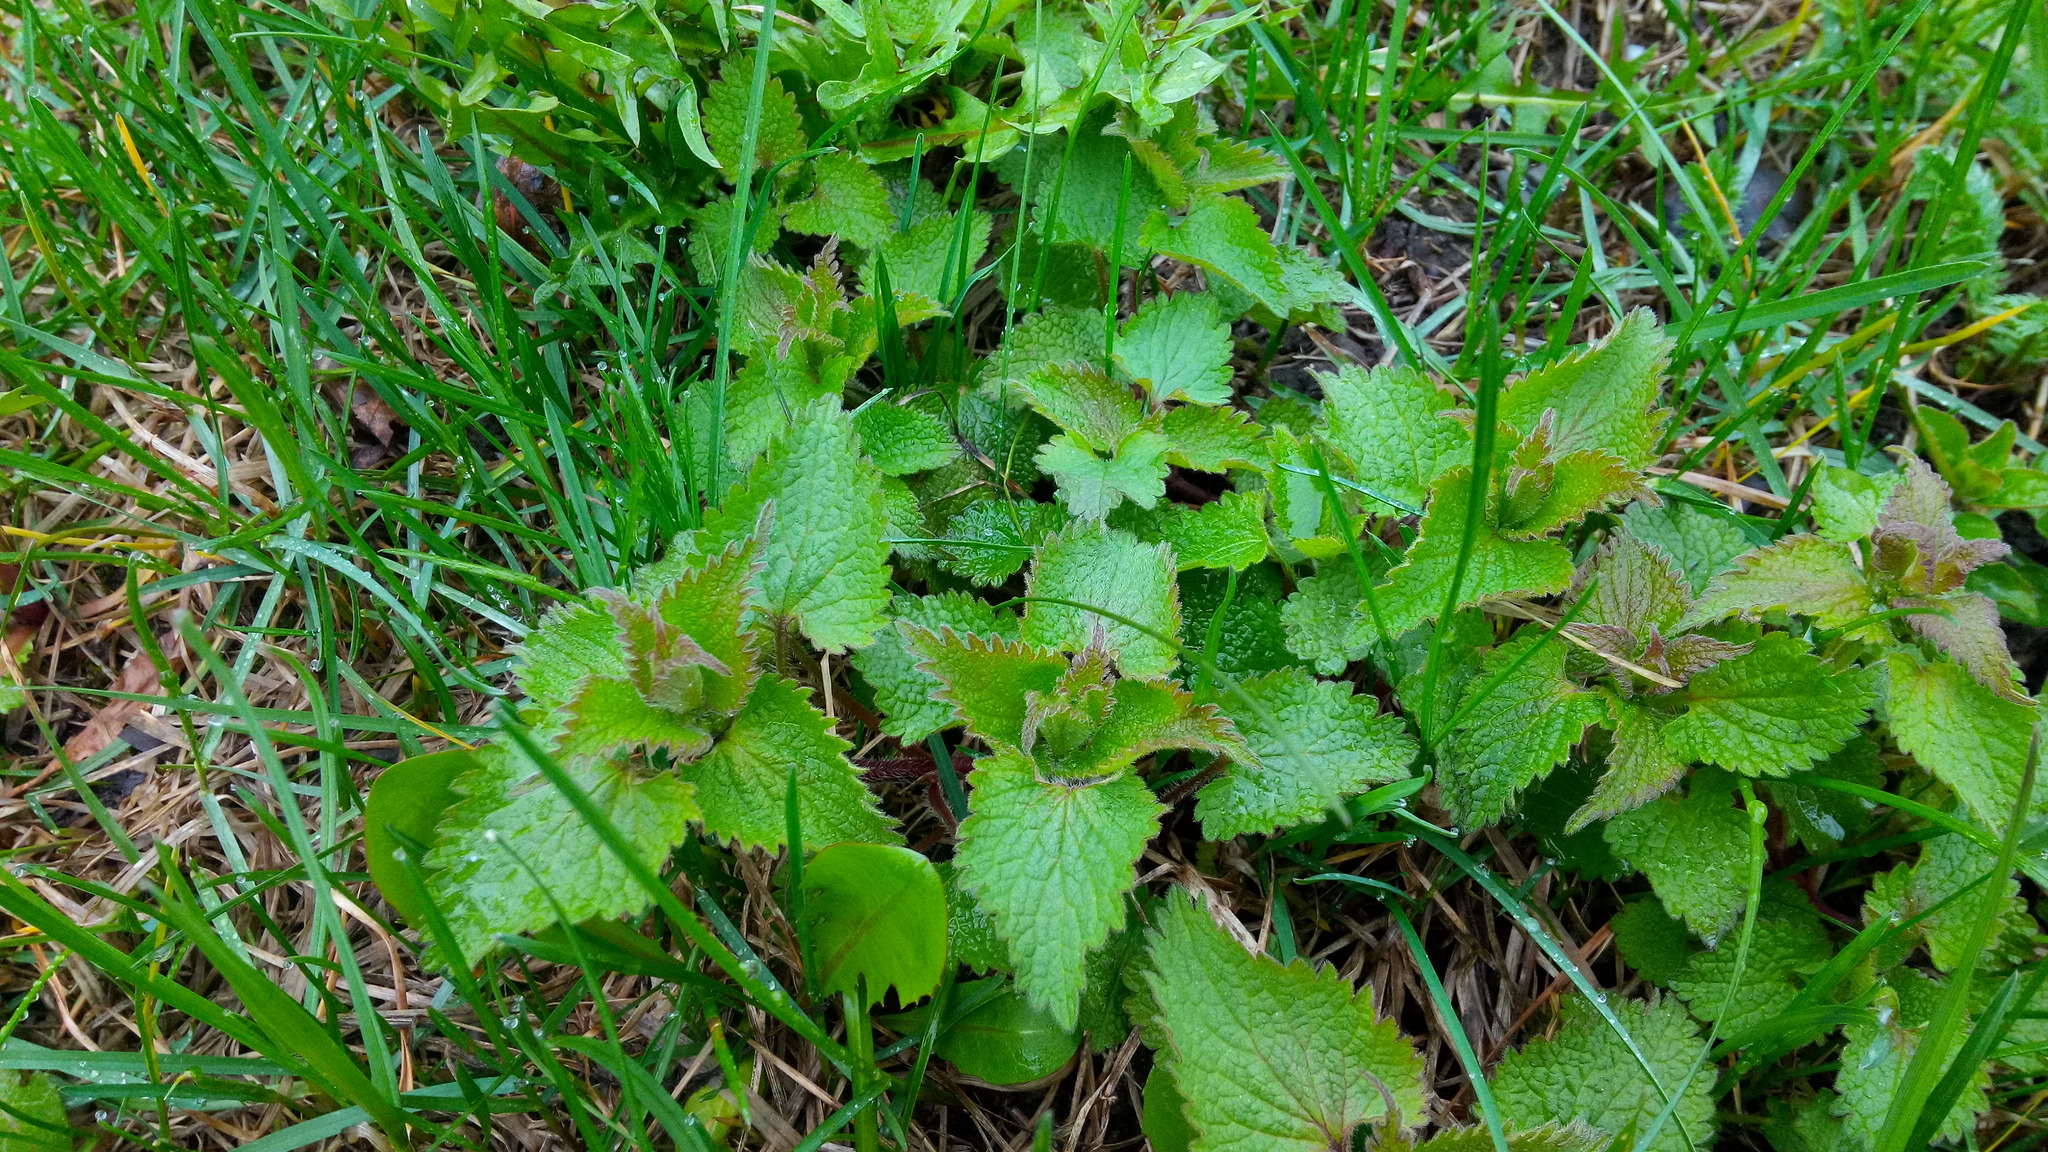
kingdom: Plantae
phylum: Tracheophyta
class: Magnoliopsida
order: Lamiales
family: Lamiaceae
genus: Lamium
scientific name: Lamium album
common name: White dead-nettle
